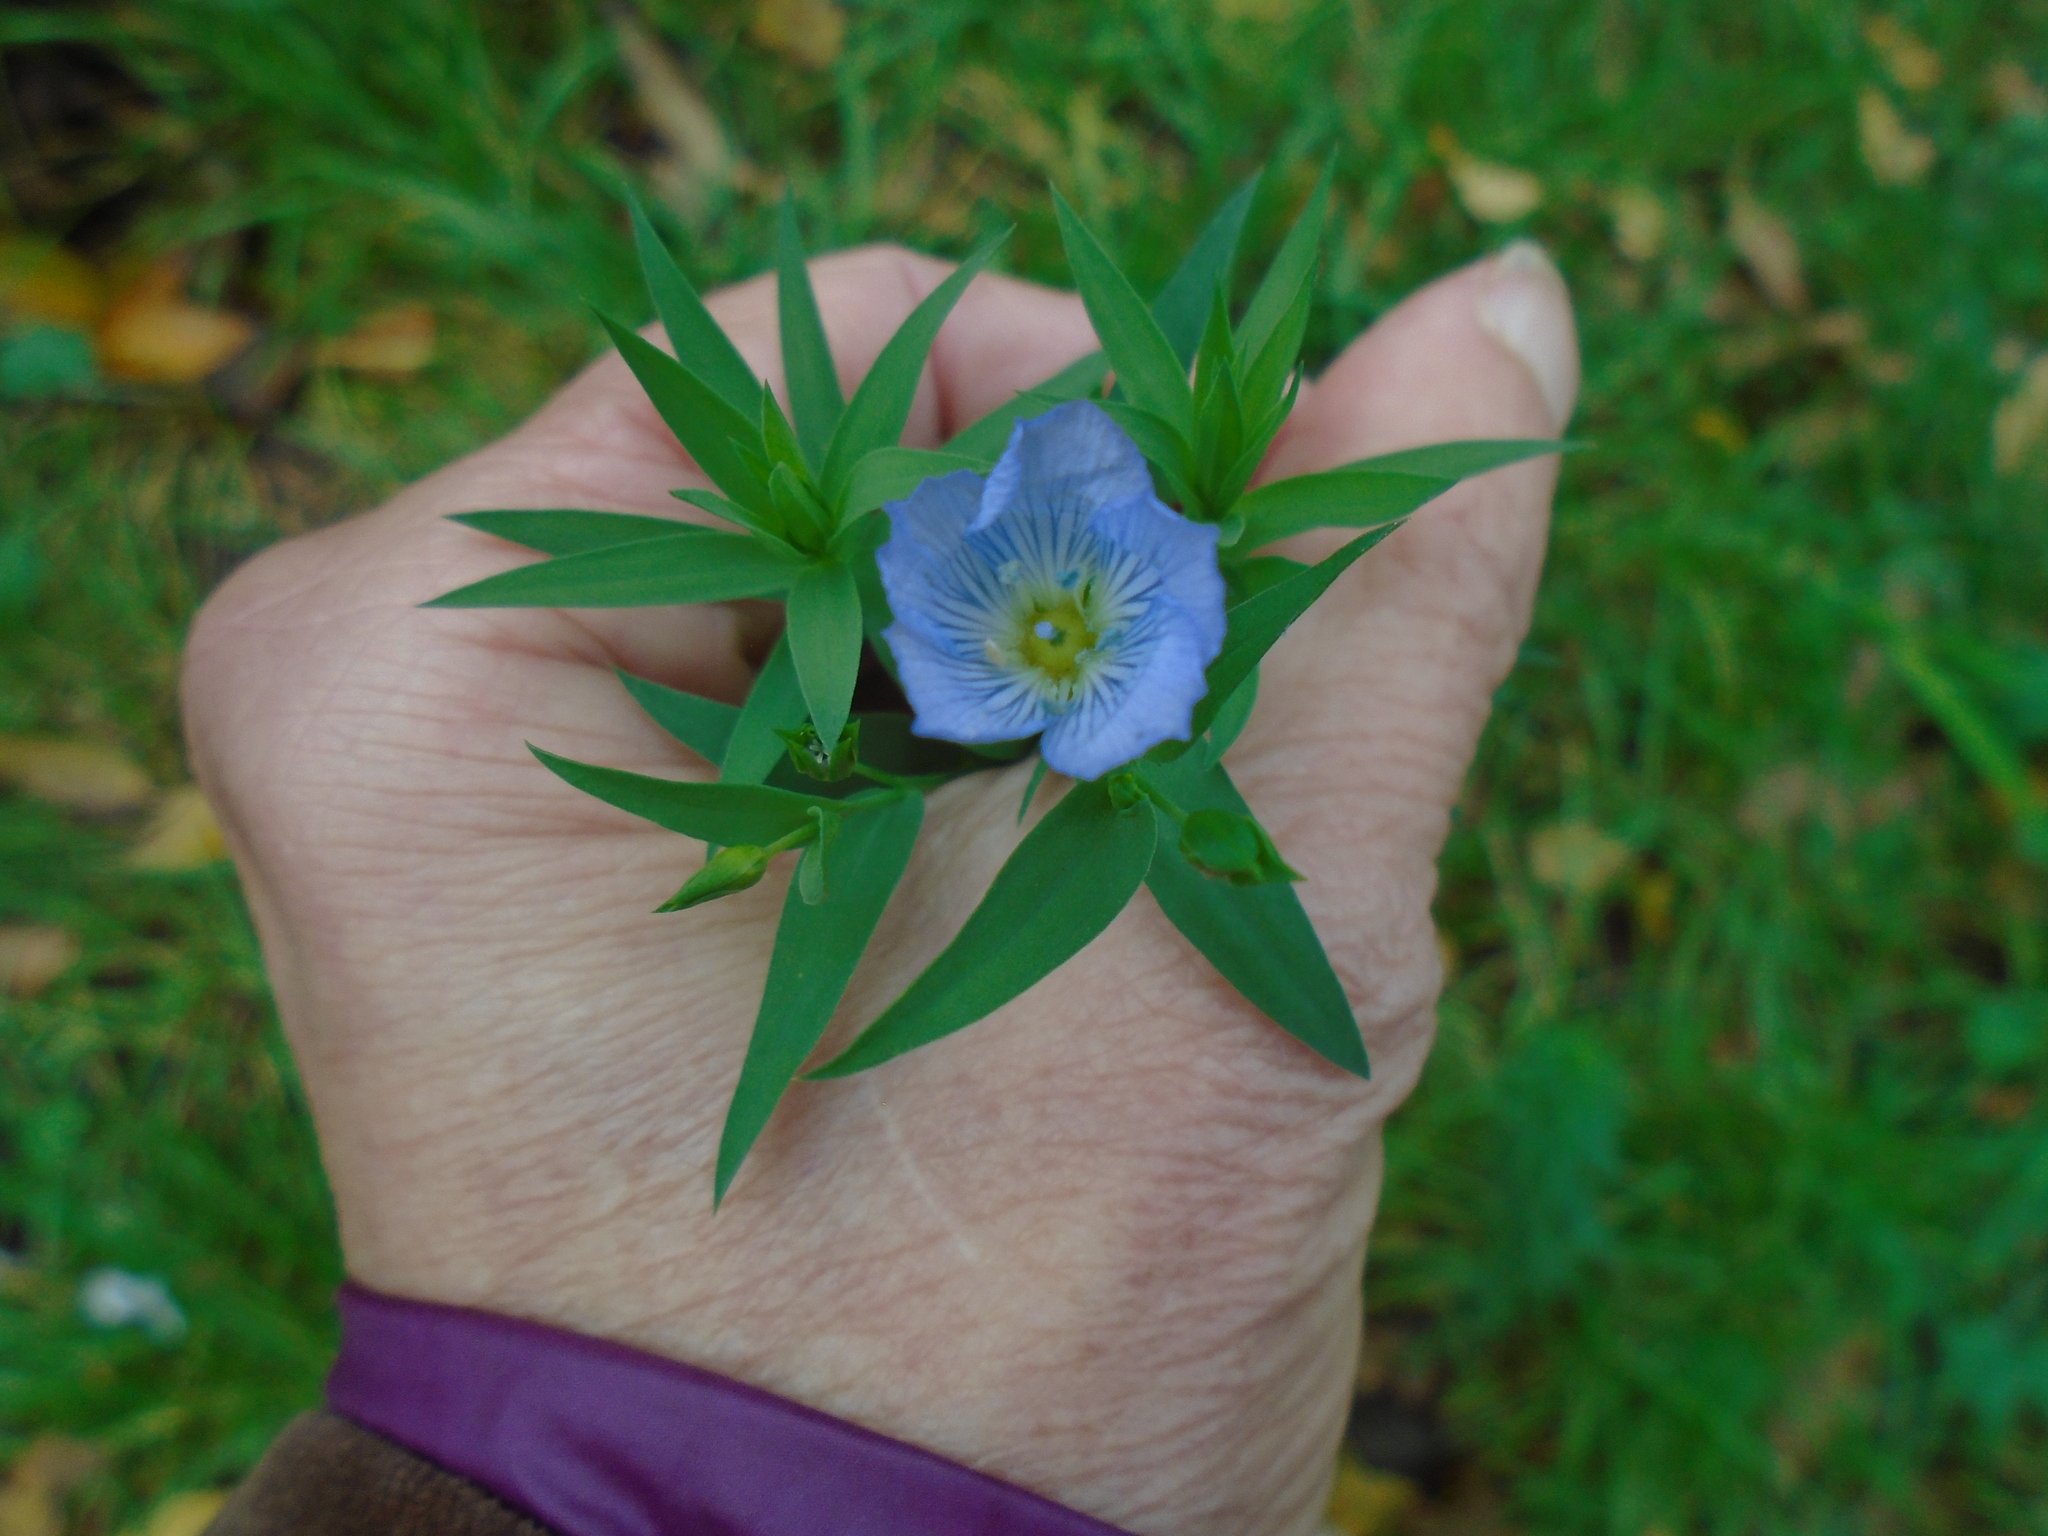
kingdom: Plantae
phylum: Tracheophyta
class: Magnoliopsida
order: Malpighiales
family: Linaceae
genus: Linum
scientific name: Linum usitatissimum
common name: Flax
